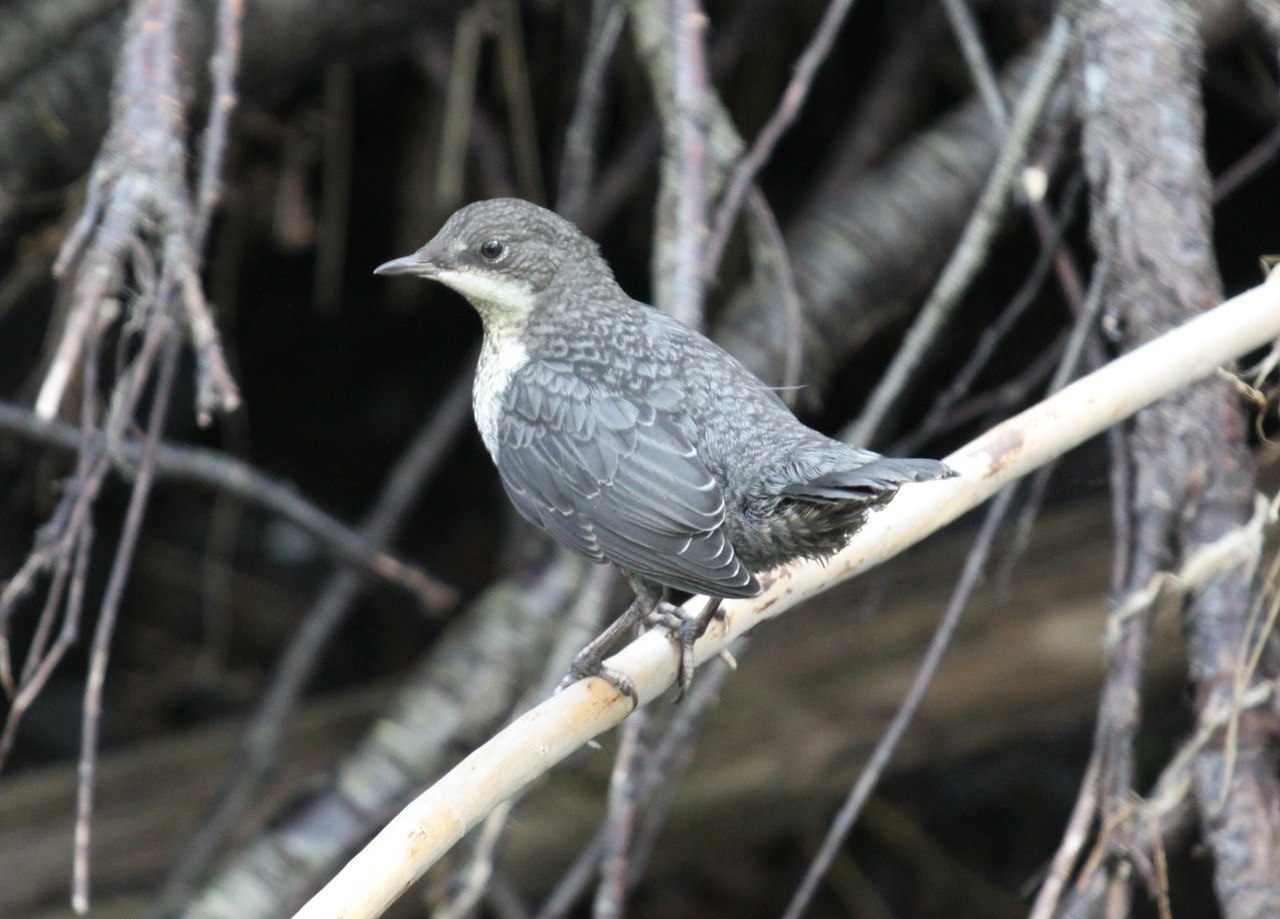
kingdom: Animalia
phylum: Chordata
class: Aves
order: Passeriformes
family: Cinclidae
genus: Cinclus
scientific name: Cinclus cinclus
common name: White-throated dipper
